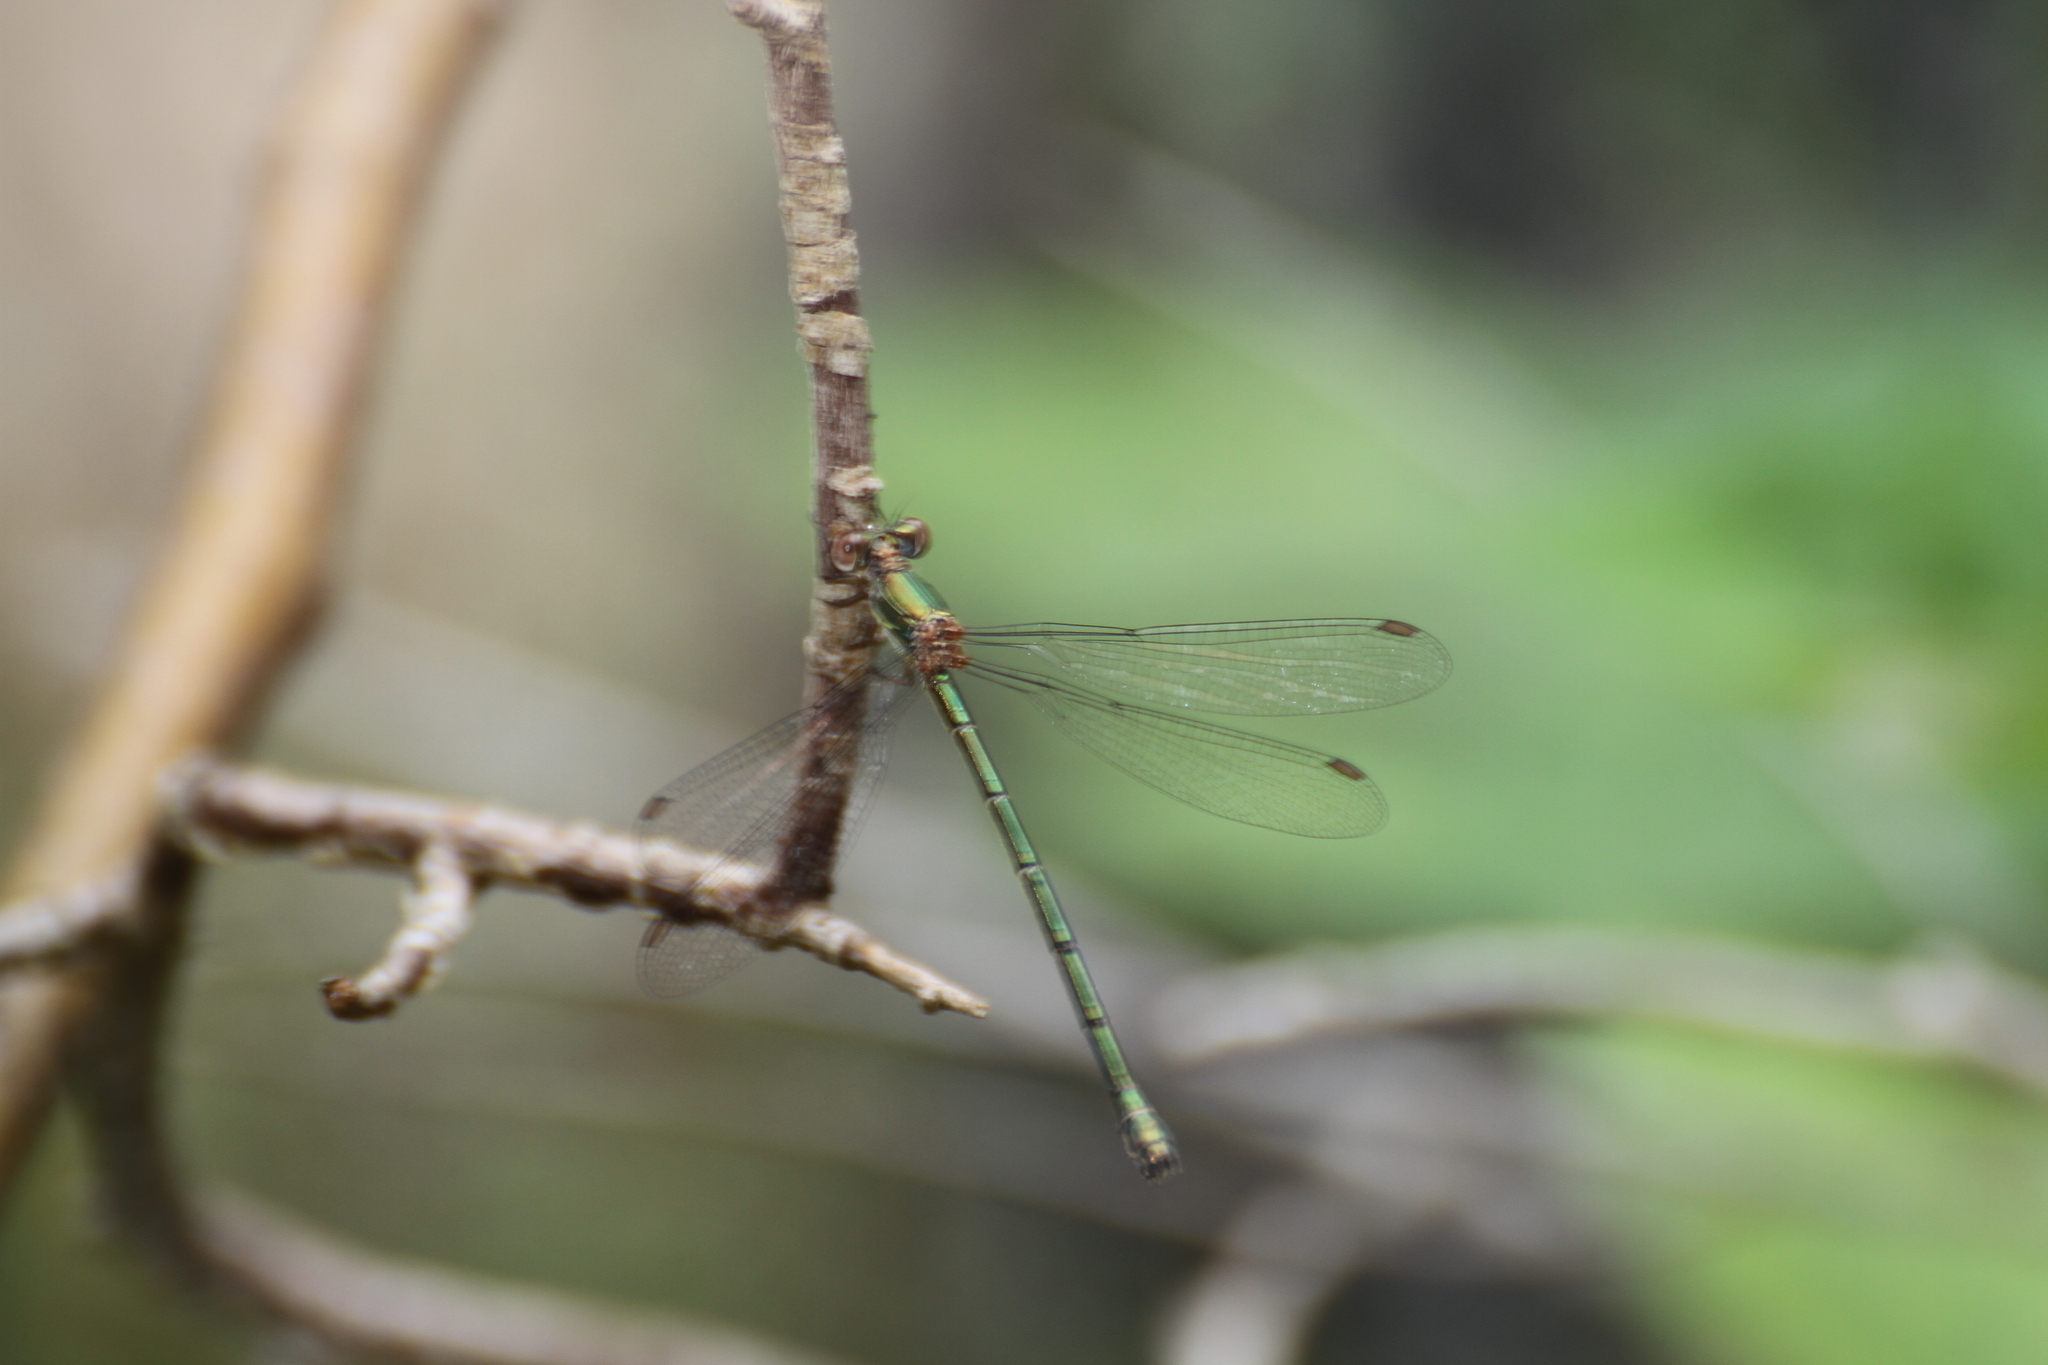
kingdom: Animalia
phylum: Arthropoda
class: Insecta
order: Odonata
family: Lestidae
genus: Chalcolestes
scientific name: Chalcolestes viridis
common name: Green emerald damselfly
